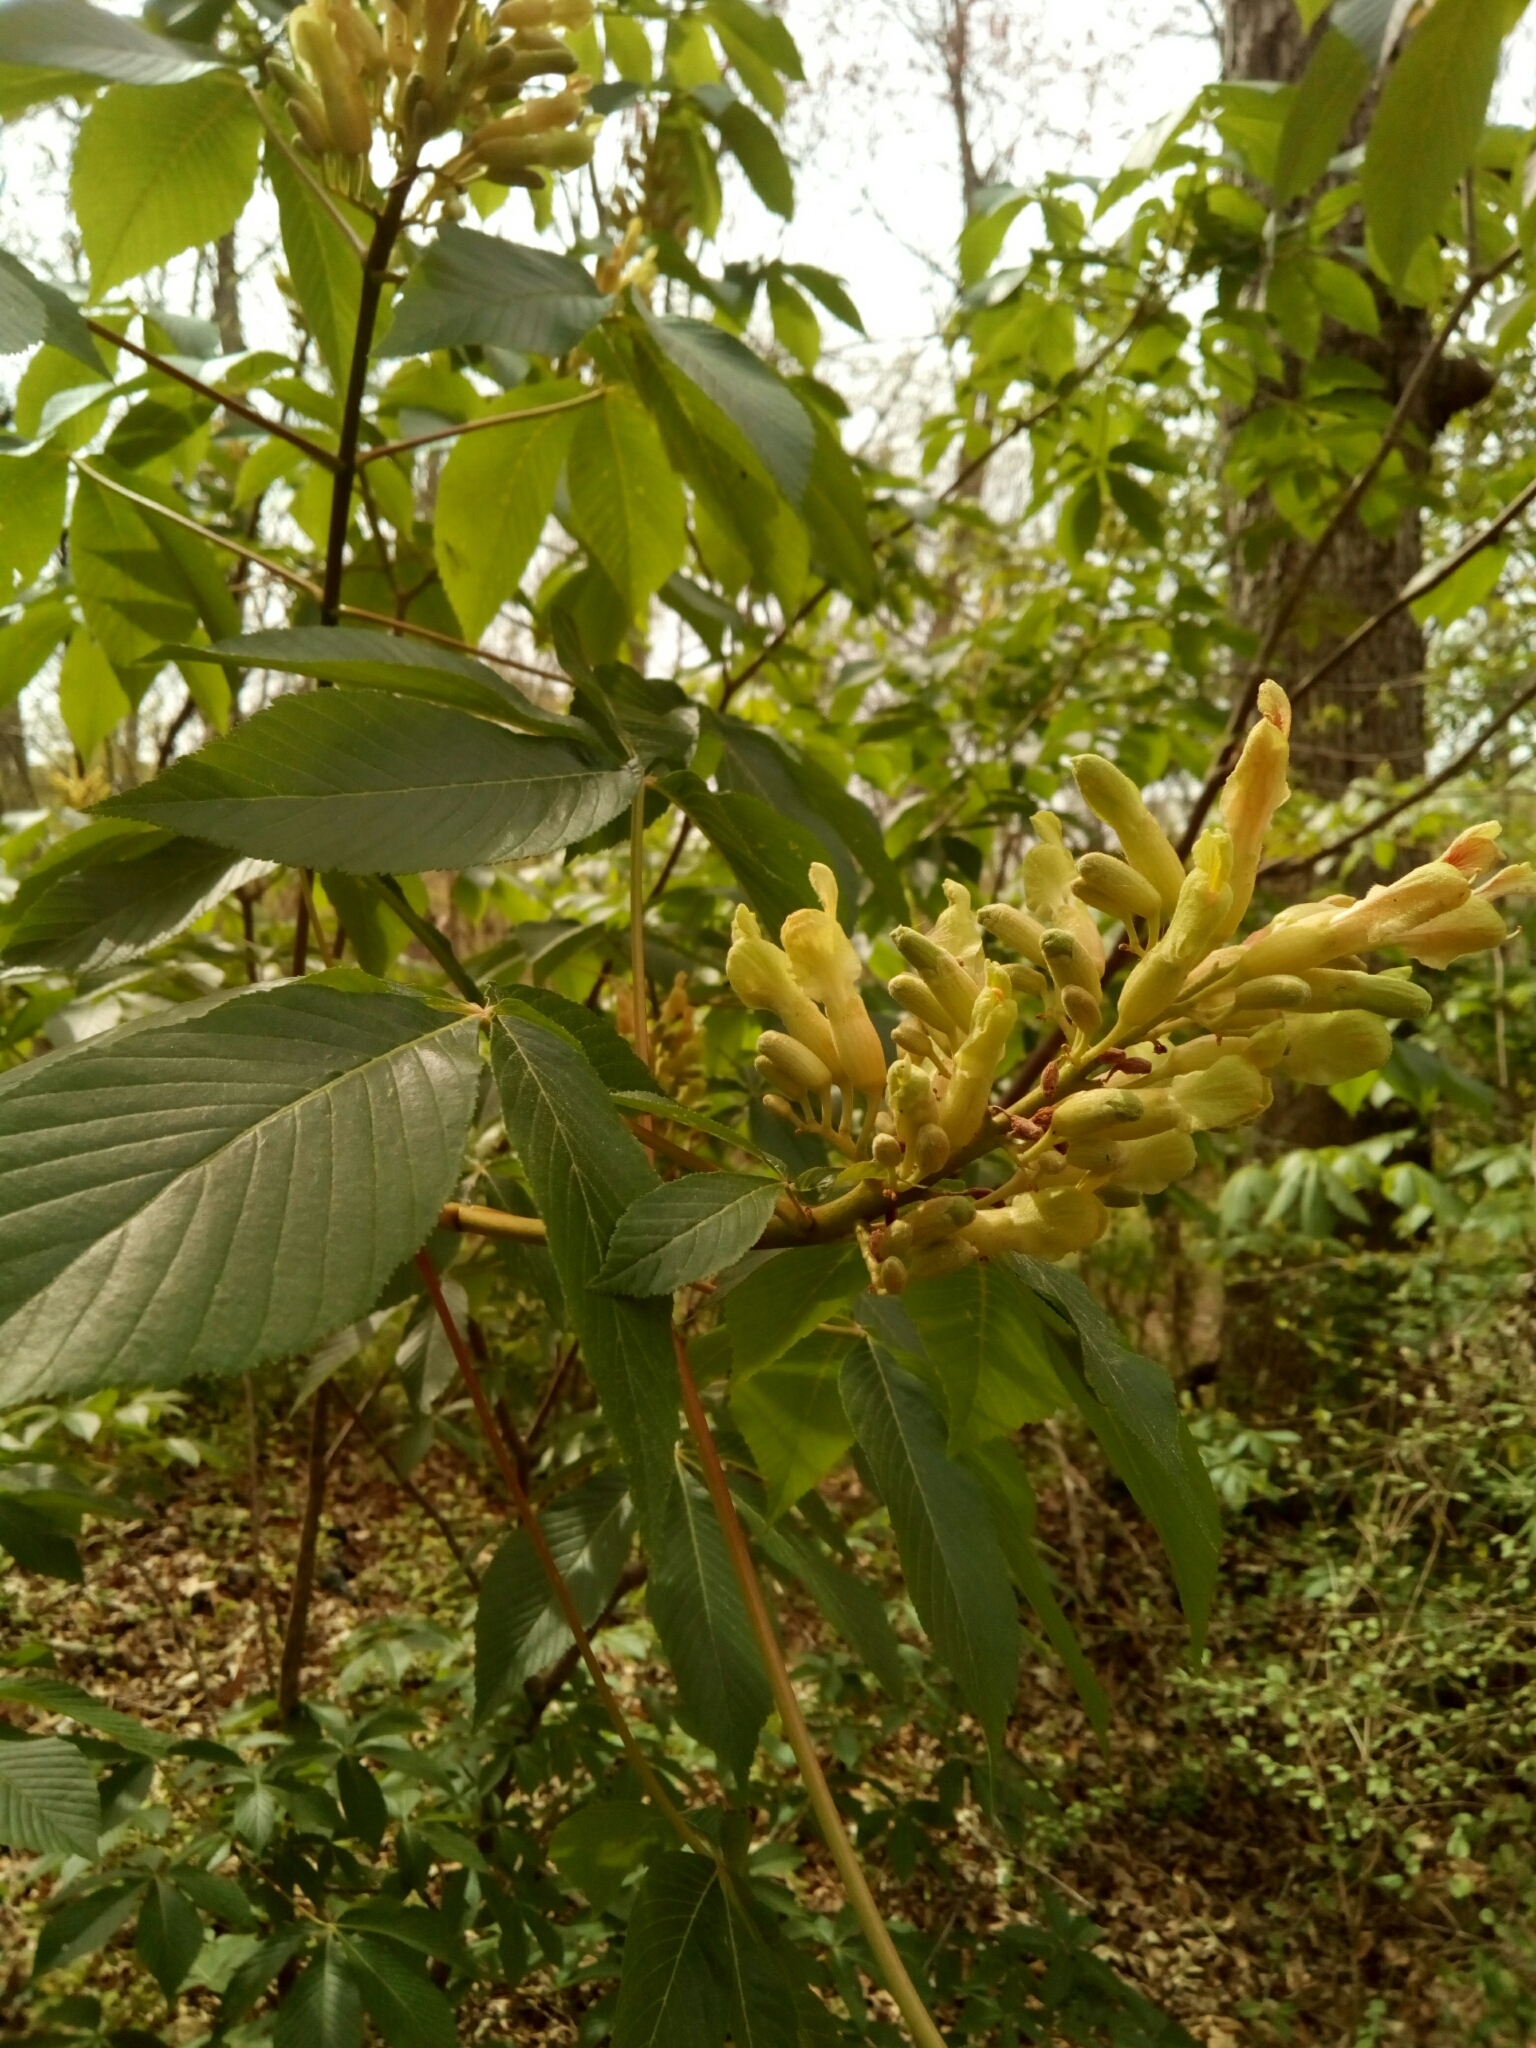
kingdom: Plantae
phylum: Tracheophyta
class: Magnoliopsida
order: Sapindales
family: Sapindaceae
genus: Aesculus
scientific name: Aesculus sylvatica
